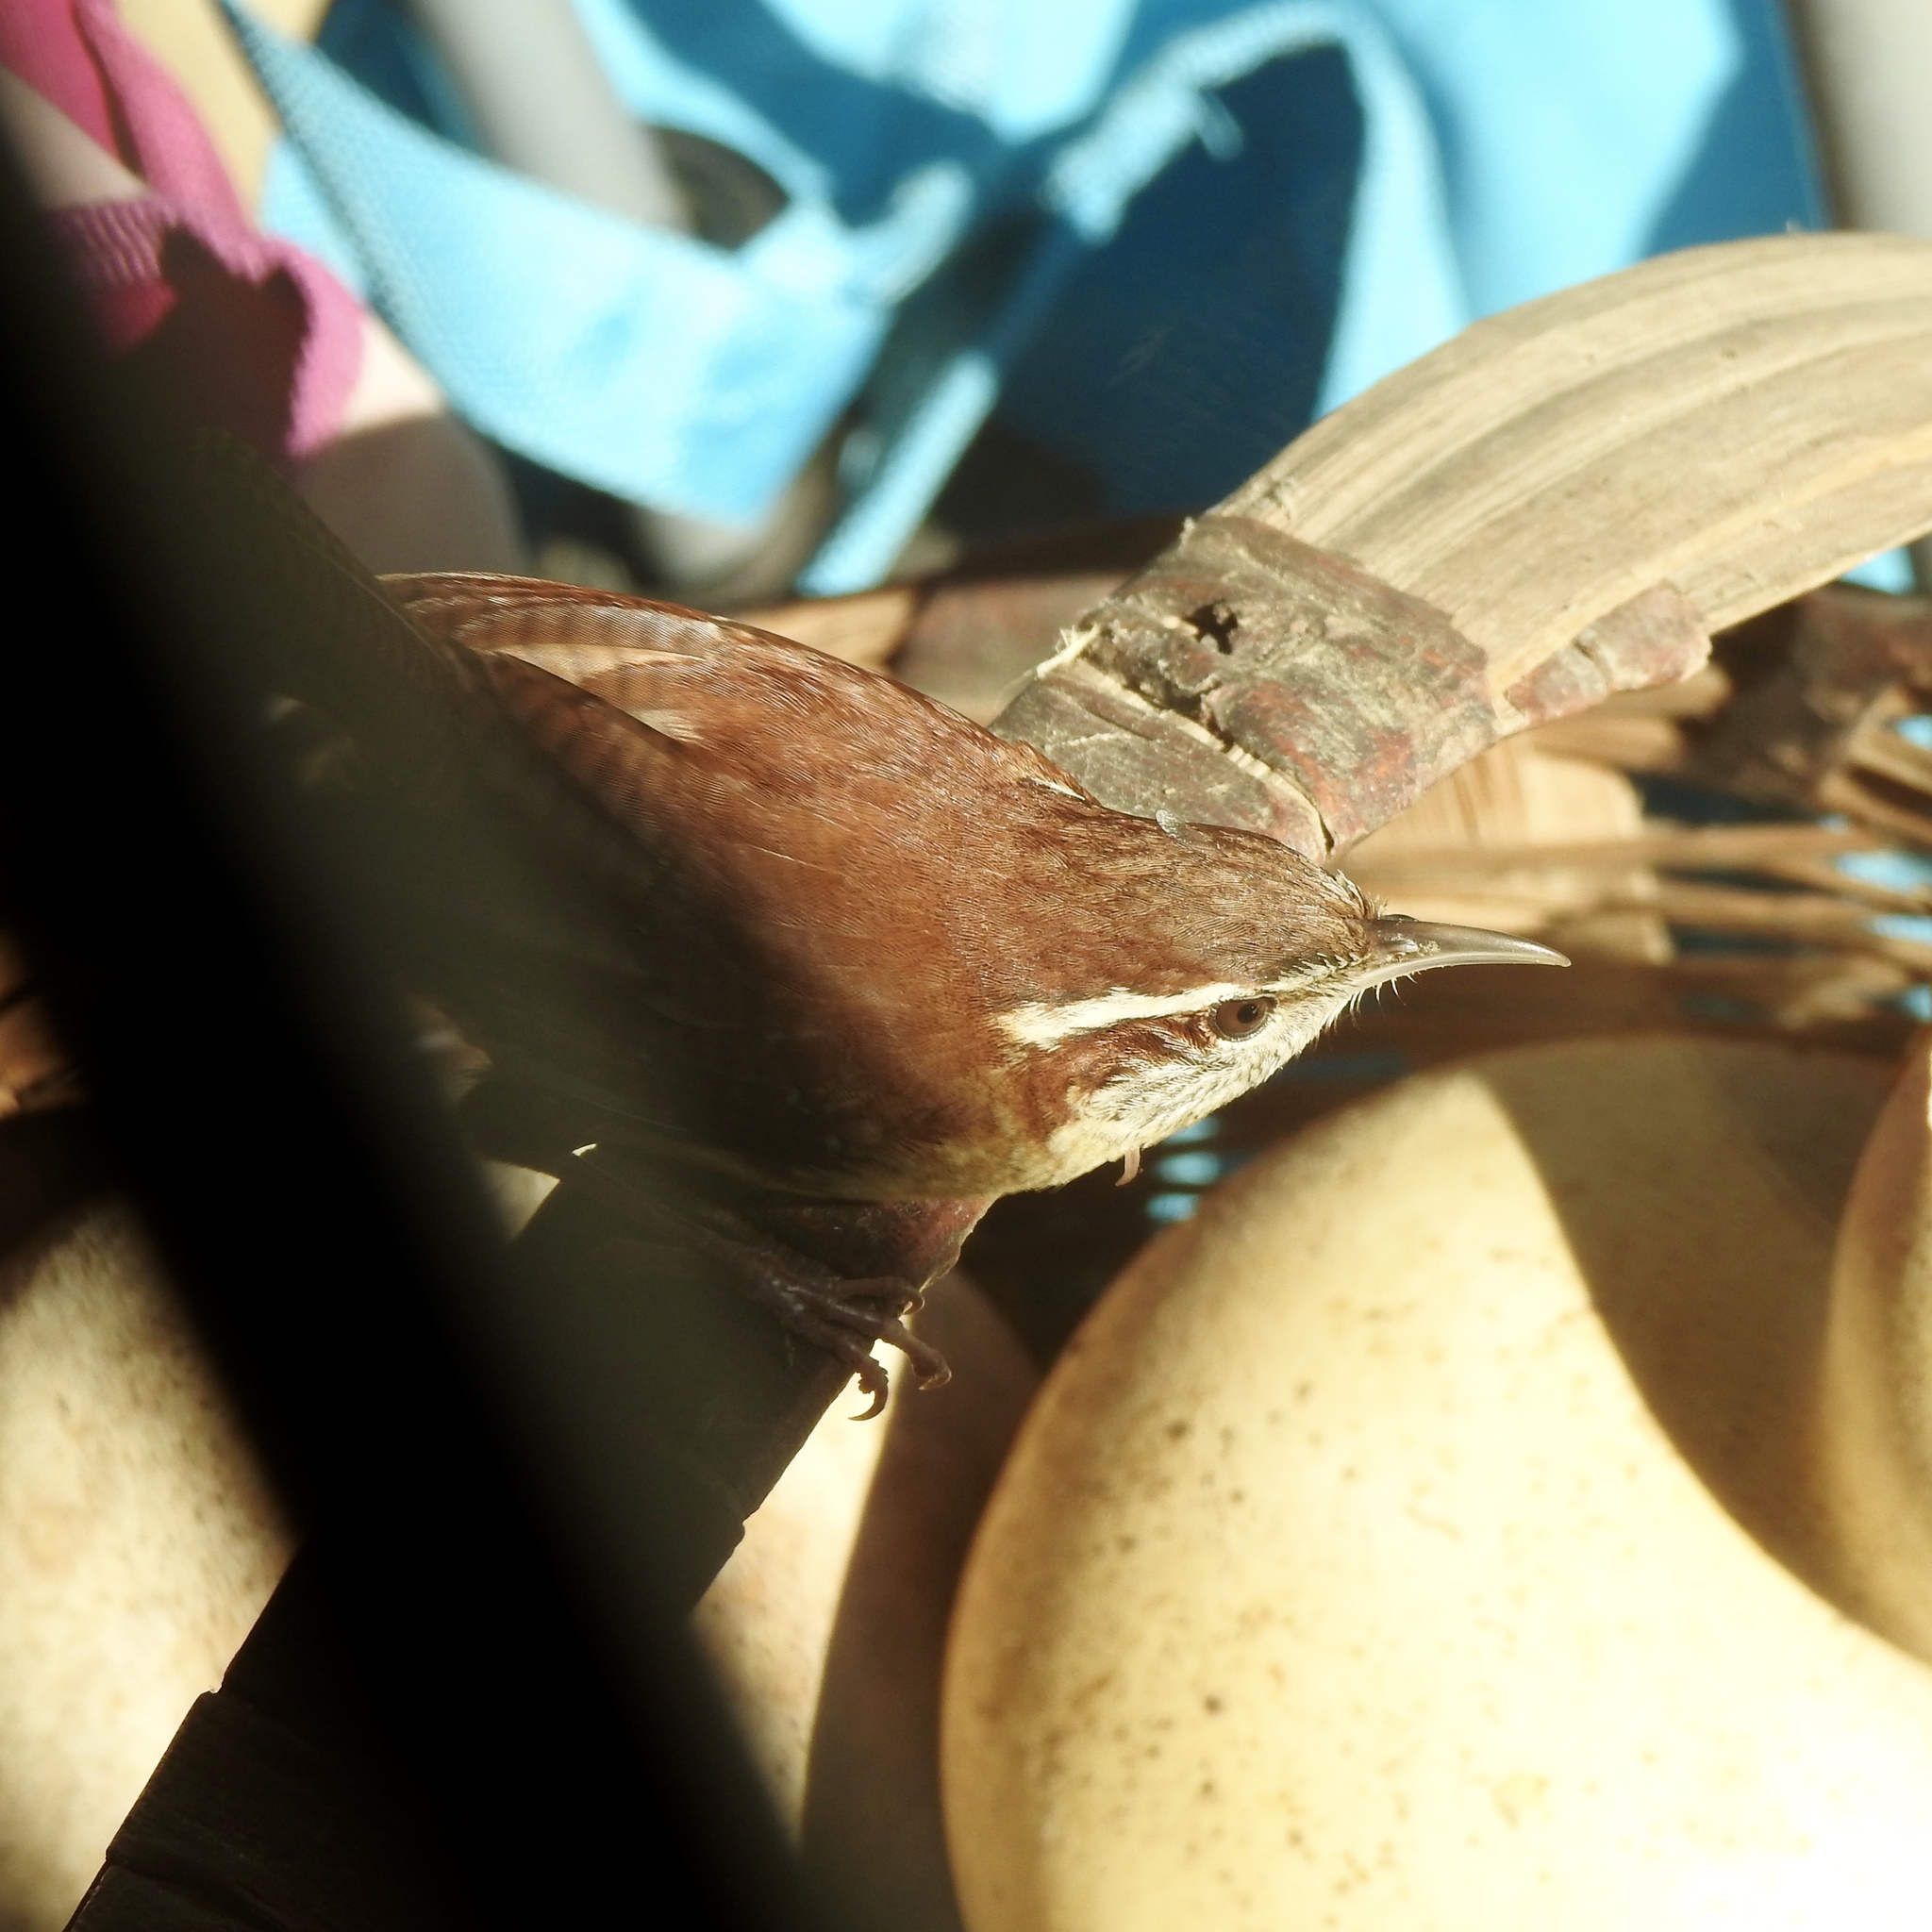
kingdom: Animalia
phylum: Chordata
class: Aves
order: Passeriformes
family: Troglodytidae
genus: Thryothorus
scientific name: Thryothorus ludovicianus
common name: Carolina wren
